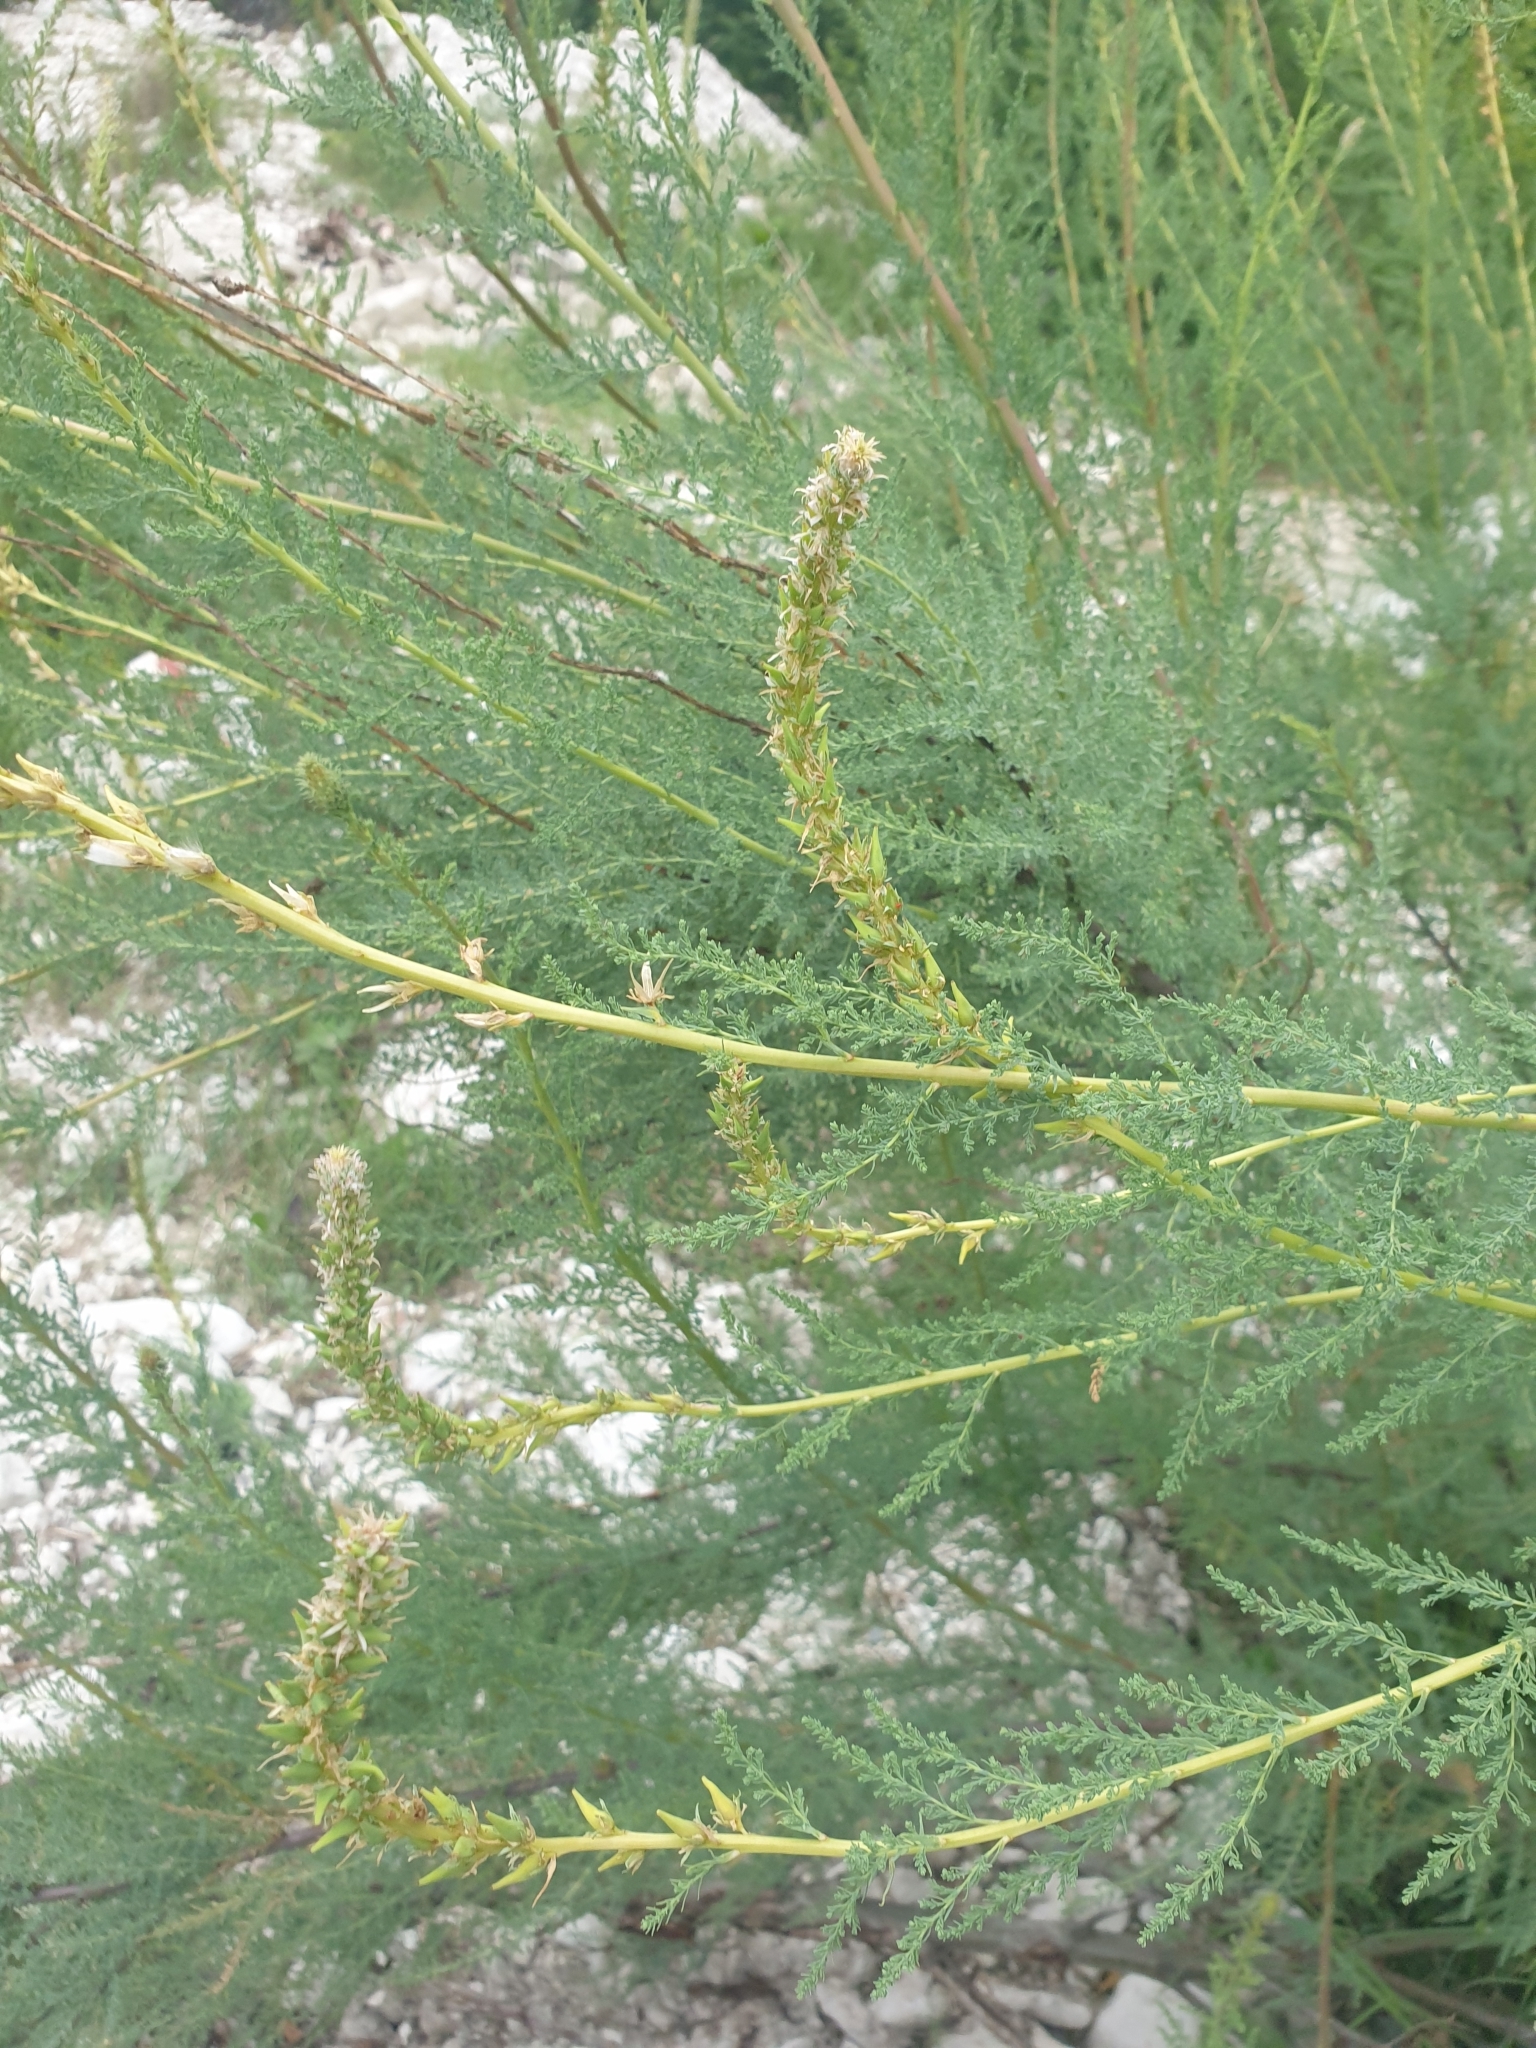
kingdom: Plantae
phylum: Tracheophyta
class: Magnoliopsida
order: Caryophyllales
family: Tamaricaceae
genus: Myricaria
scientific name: Myricaria bracteata
